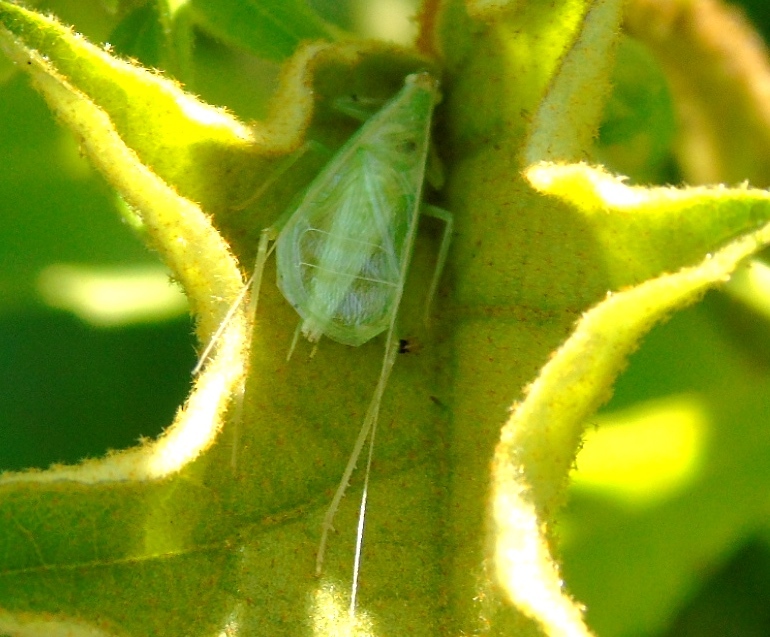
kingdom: Animalia
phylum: Arthropoda
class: Insecta
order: Orthoptera
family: Gryllidae
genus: Oecanthus
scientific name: Oecanthus
